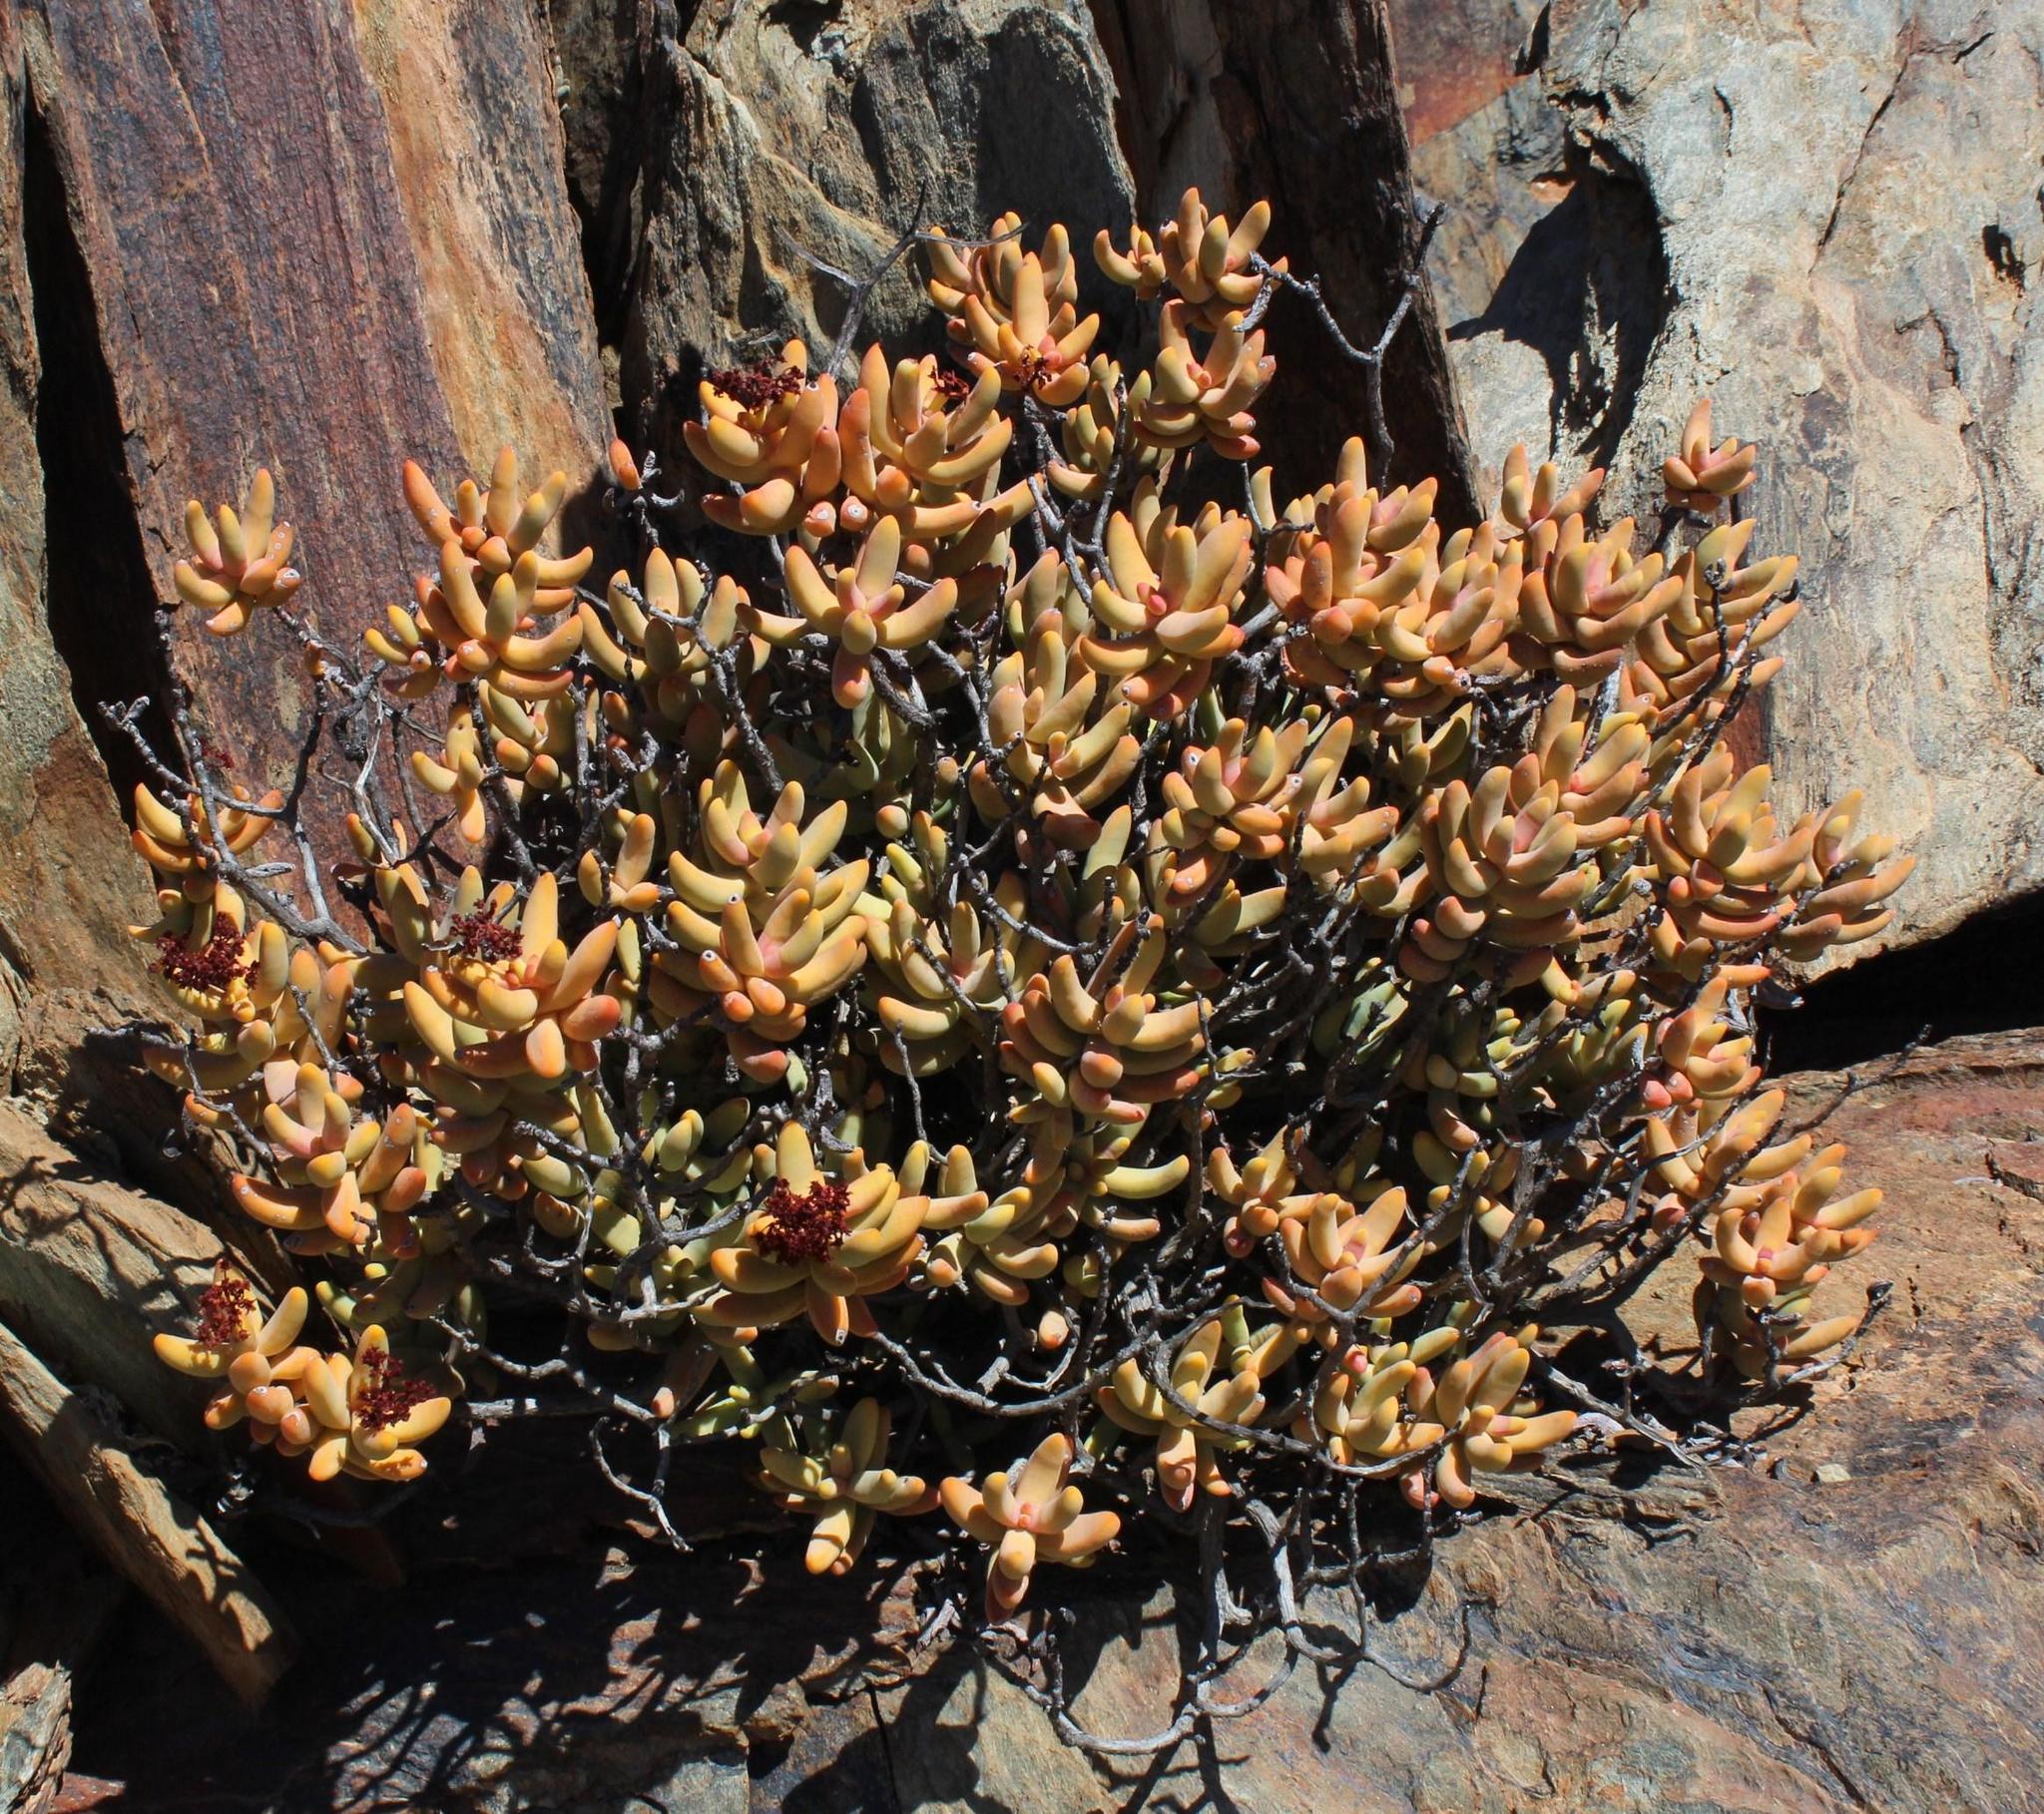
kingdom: Plantae
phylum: Tracheophyta
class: Magnoliopsida
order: Saxifragales
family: Crassulaceae
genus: Crassula
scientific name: Crassula brevifolia
